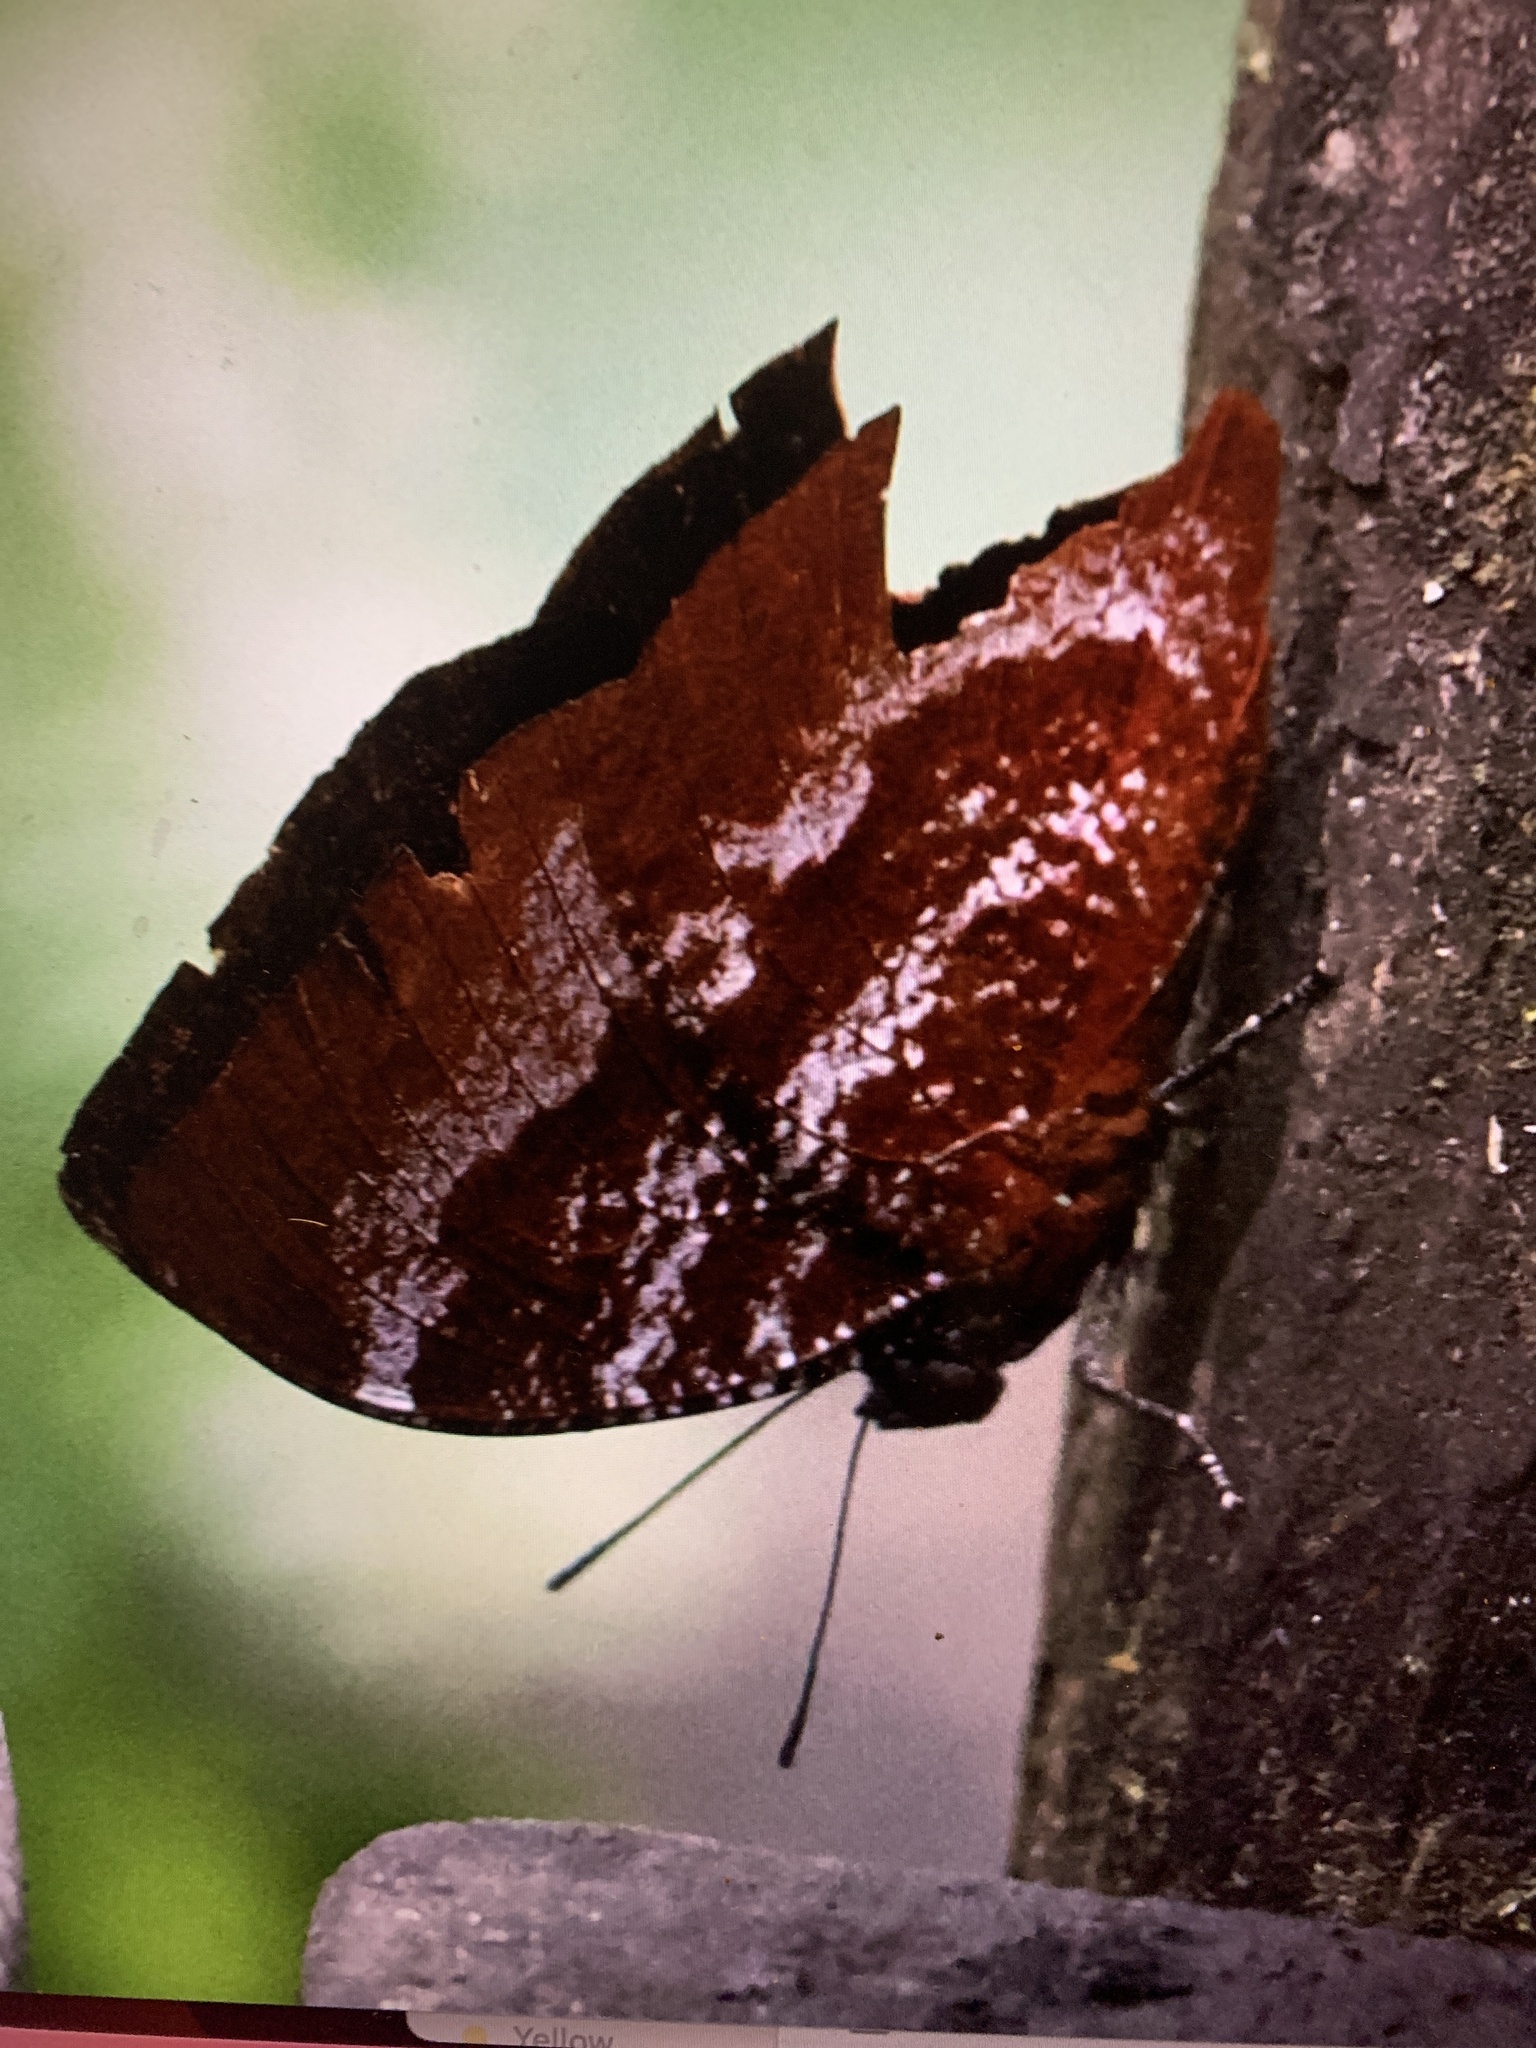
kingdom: Animalia
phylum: Arthropoda
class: Insecta
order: Lepidoptera
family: Nymphalidae
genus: Memphis
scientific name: Memphis
